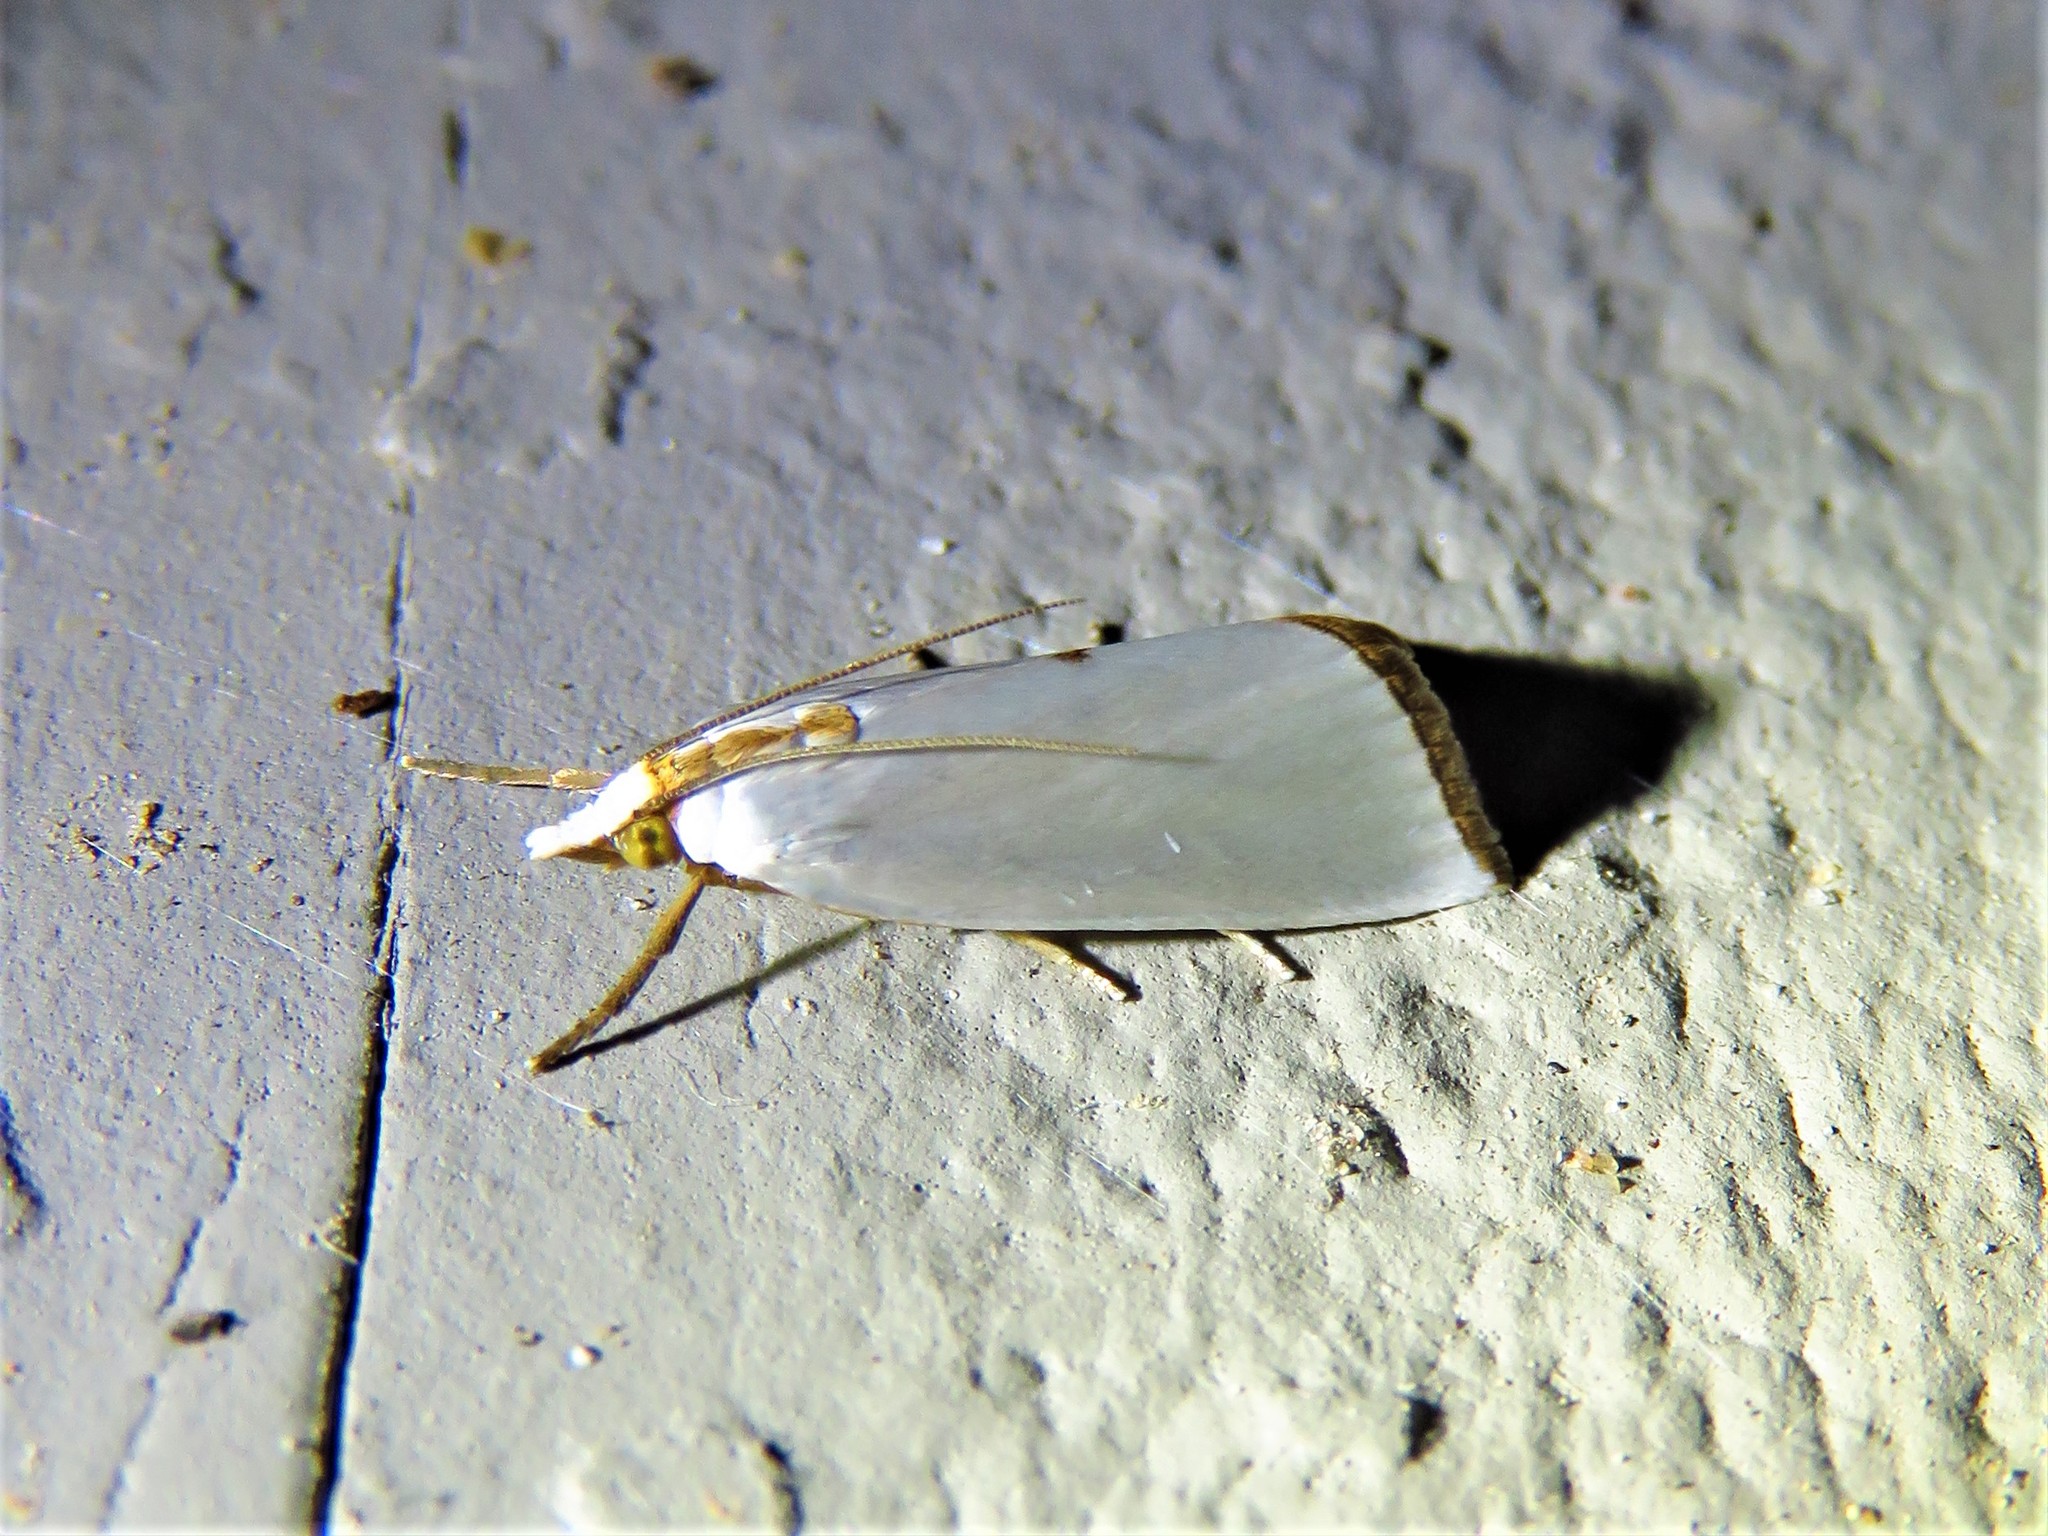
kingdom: Animalia
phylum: Arthropoda
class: Insecta
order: Lepidoptera
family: Crambidae
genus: Argyria
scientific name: Argyria nivalis
